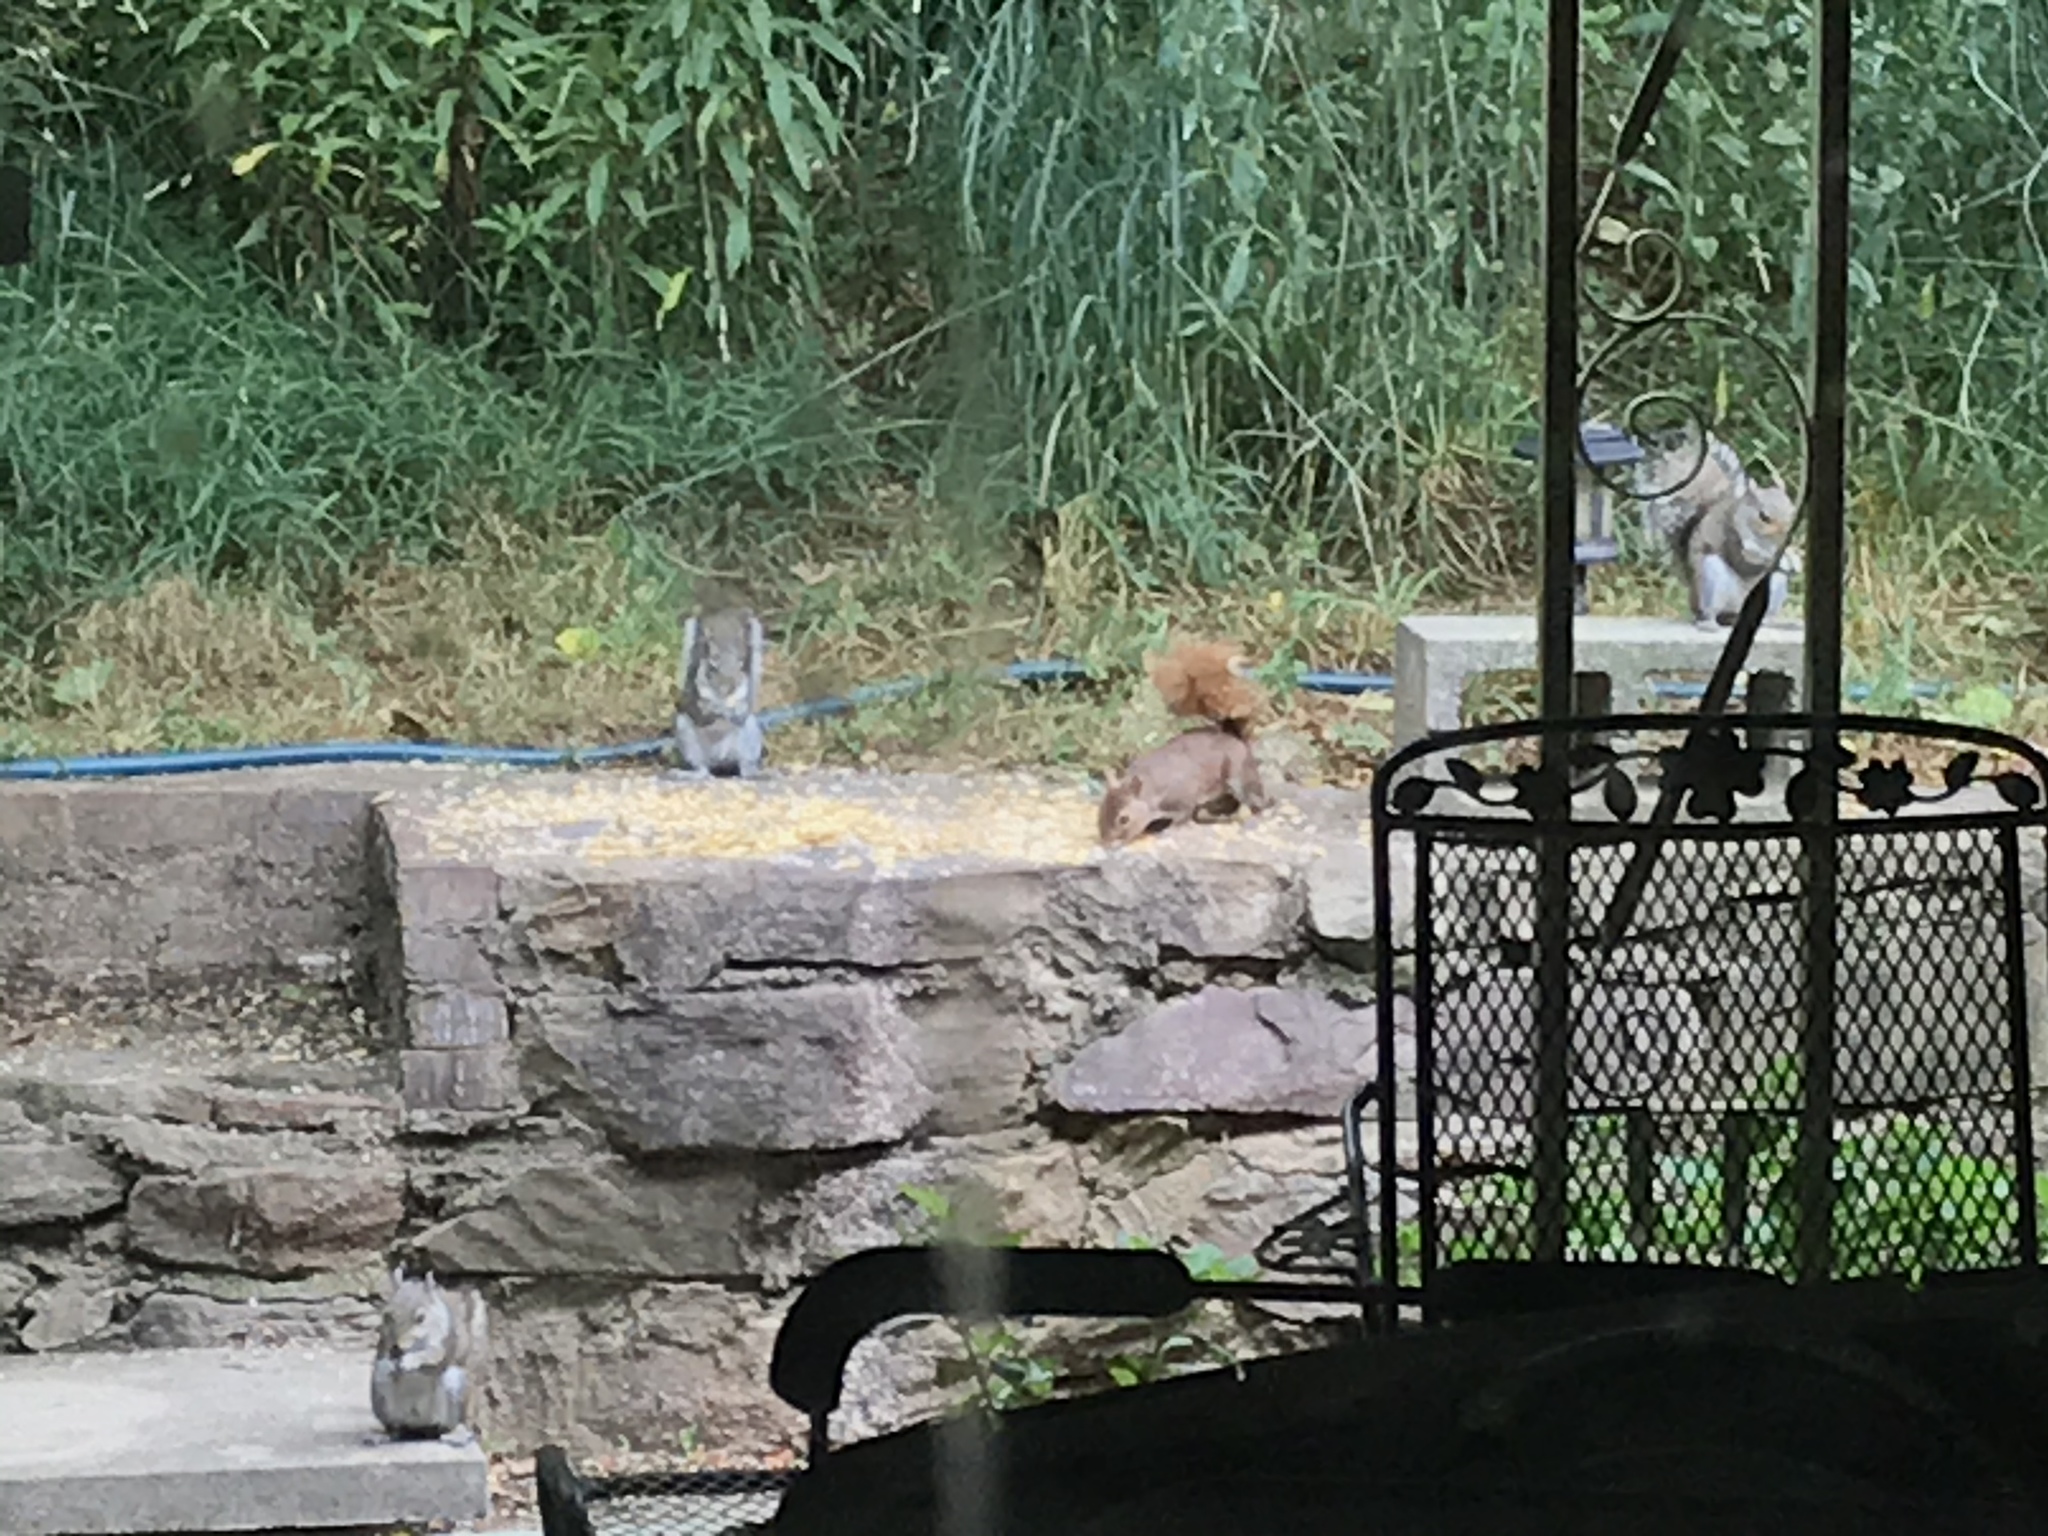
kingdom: Animalia
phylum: Chordata
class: Mammalia
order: Rodentia
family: Sciuridae
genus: Sciurus
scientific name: Sciurus carolinensis
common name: Eastern gray squirrel
